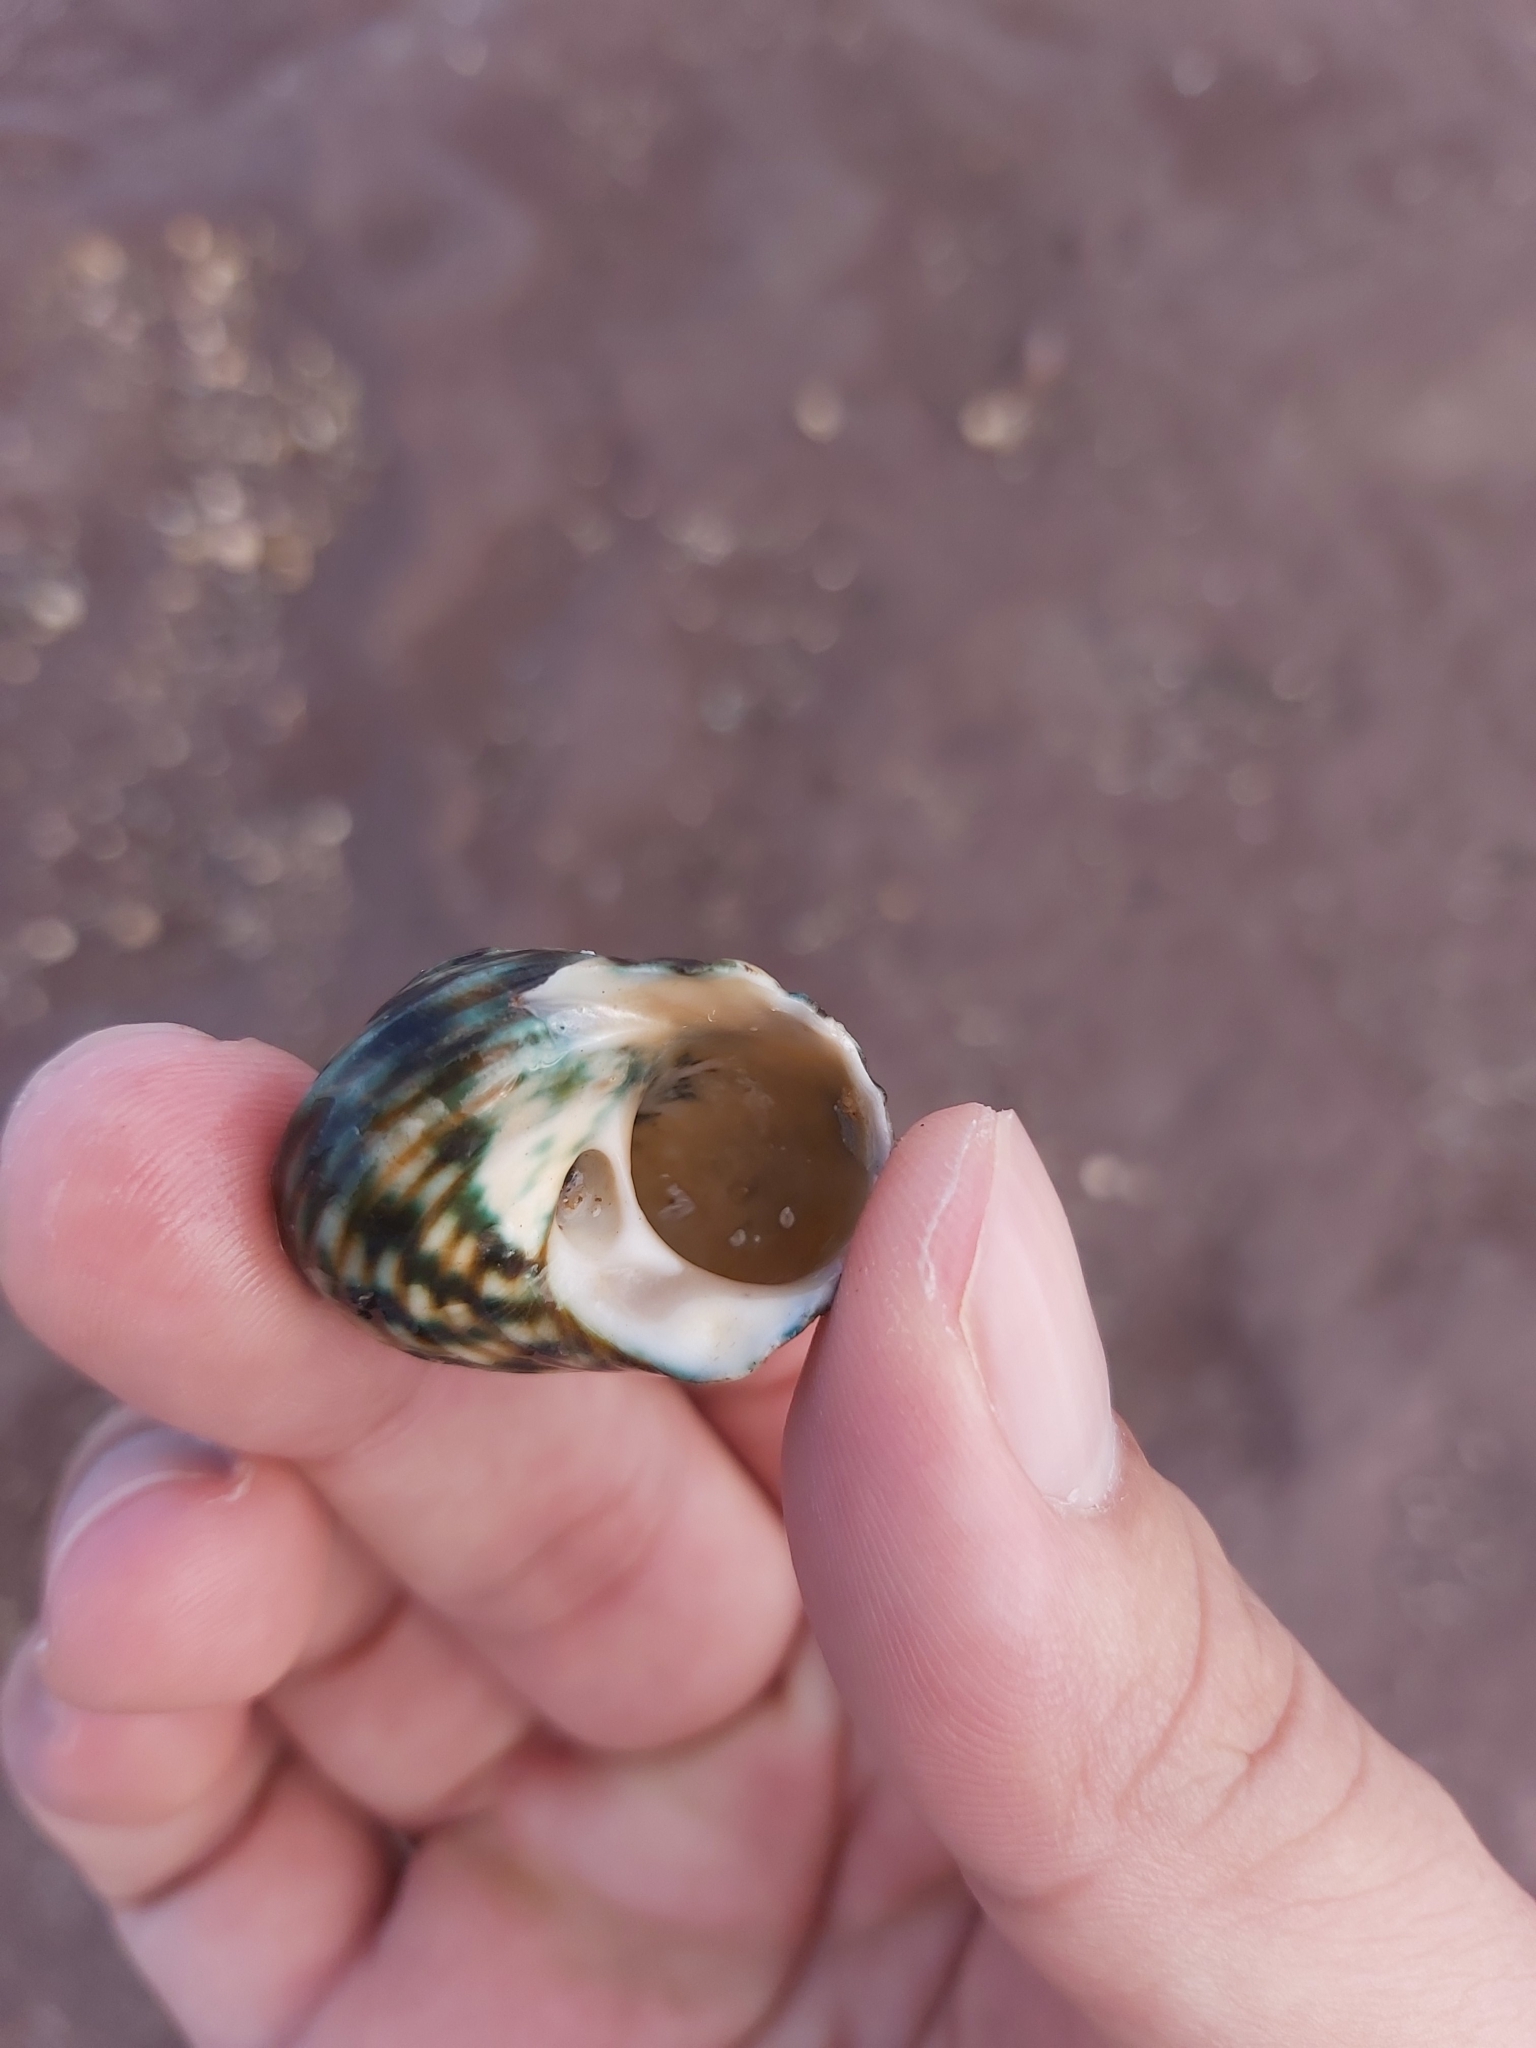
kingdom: Animalia
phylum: Mollusca
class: Gastropoda
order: Trochida
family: Turbinidae
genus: Lunella
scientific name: Lunella undulata
